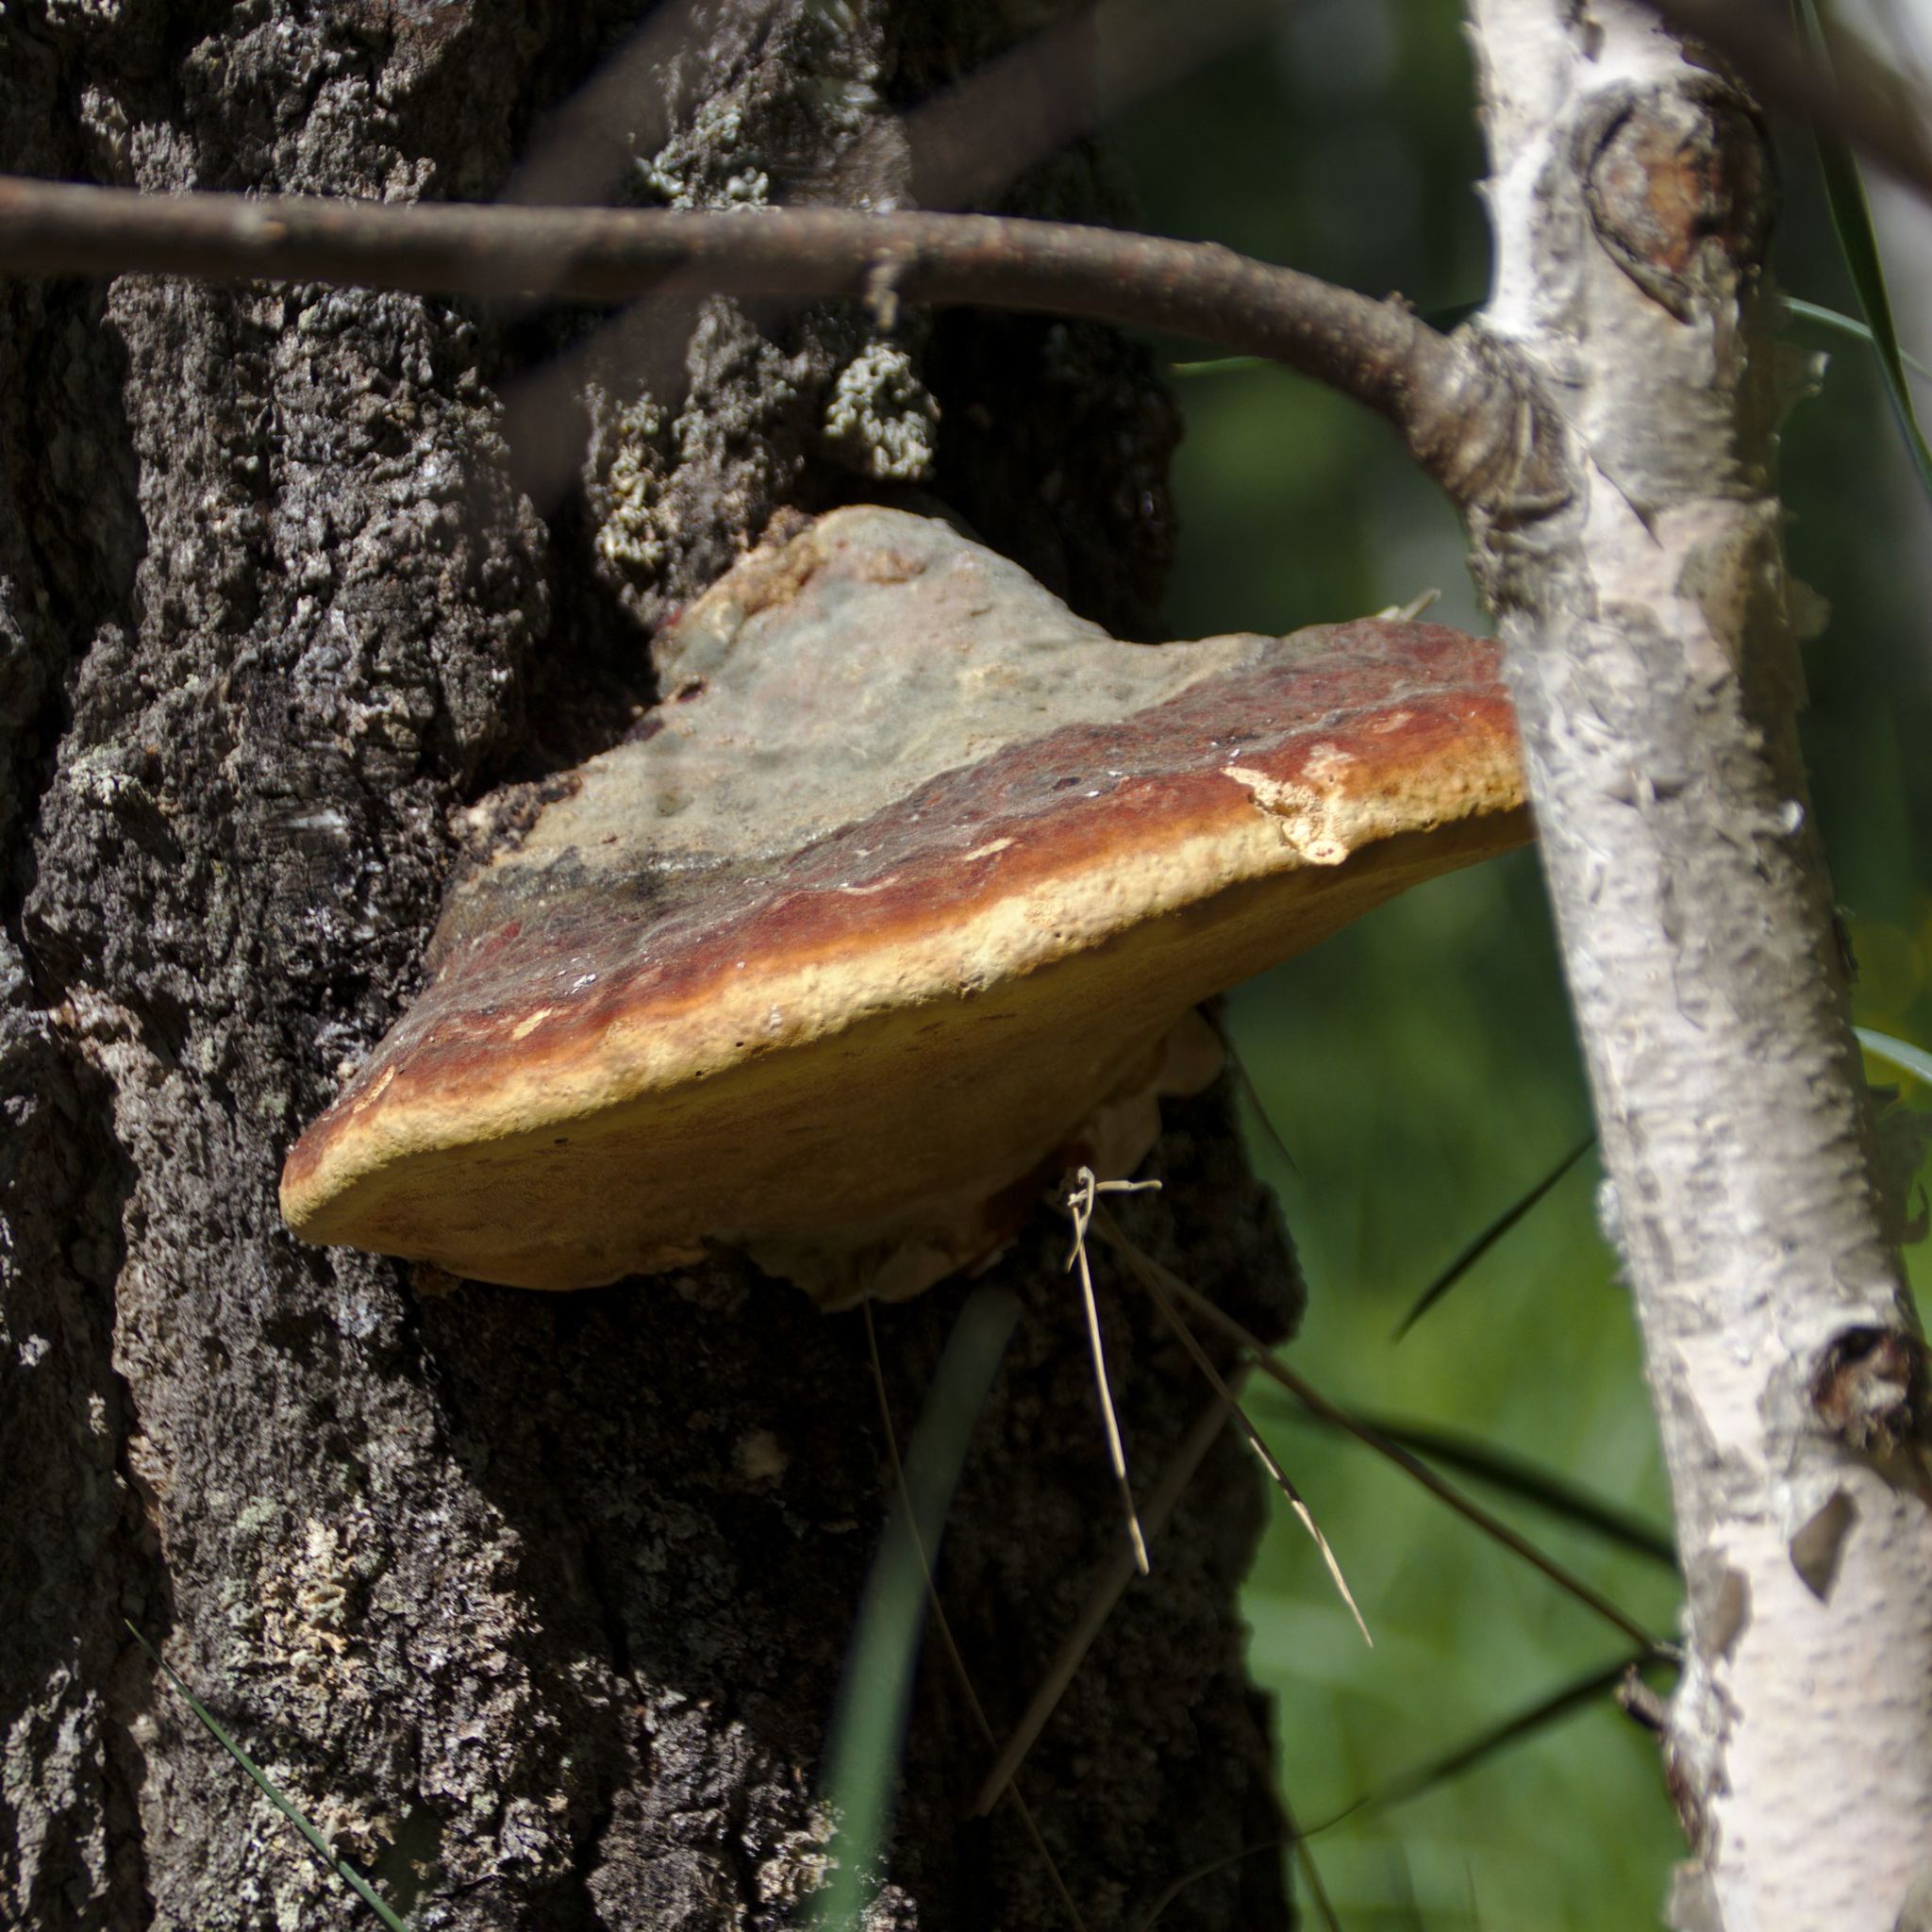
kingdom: Fungi
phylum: Basidiomycota
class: Agaricomycetes
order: Polyporales
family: Fomitopsidaceae
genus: Fomitopsis
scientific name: Fomitopsis pinicola
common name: Red-belted bracket
